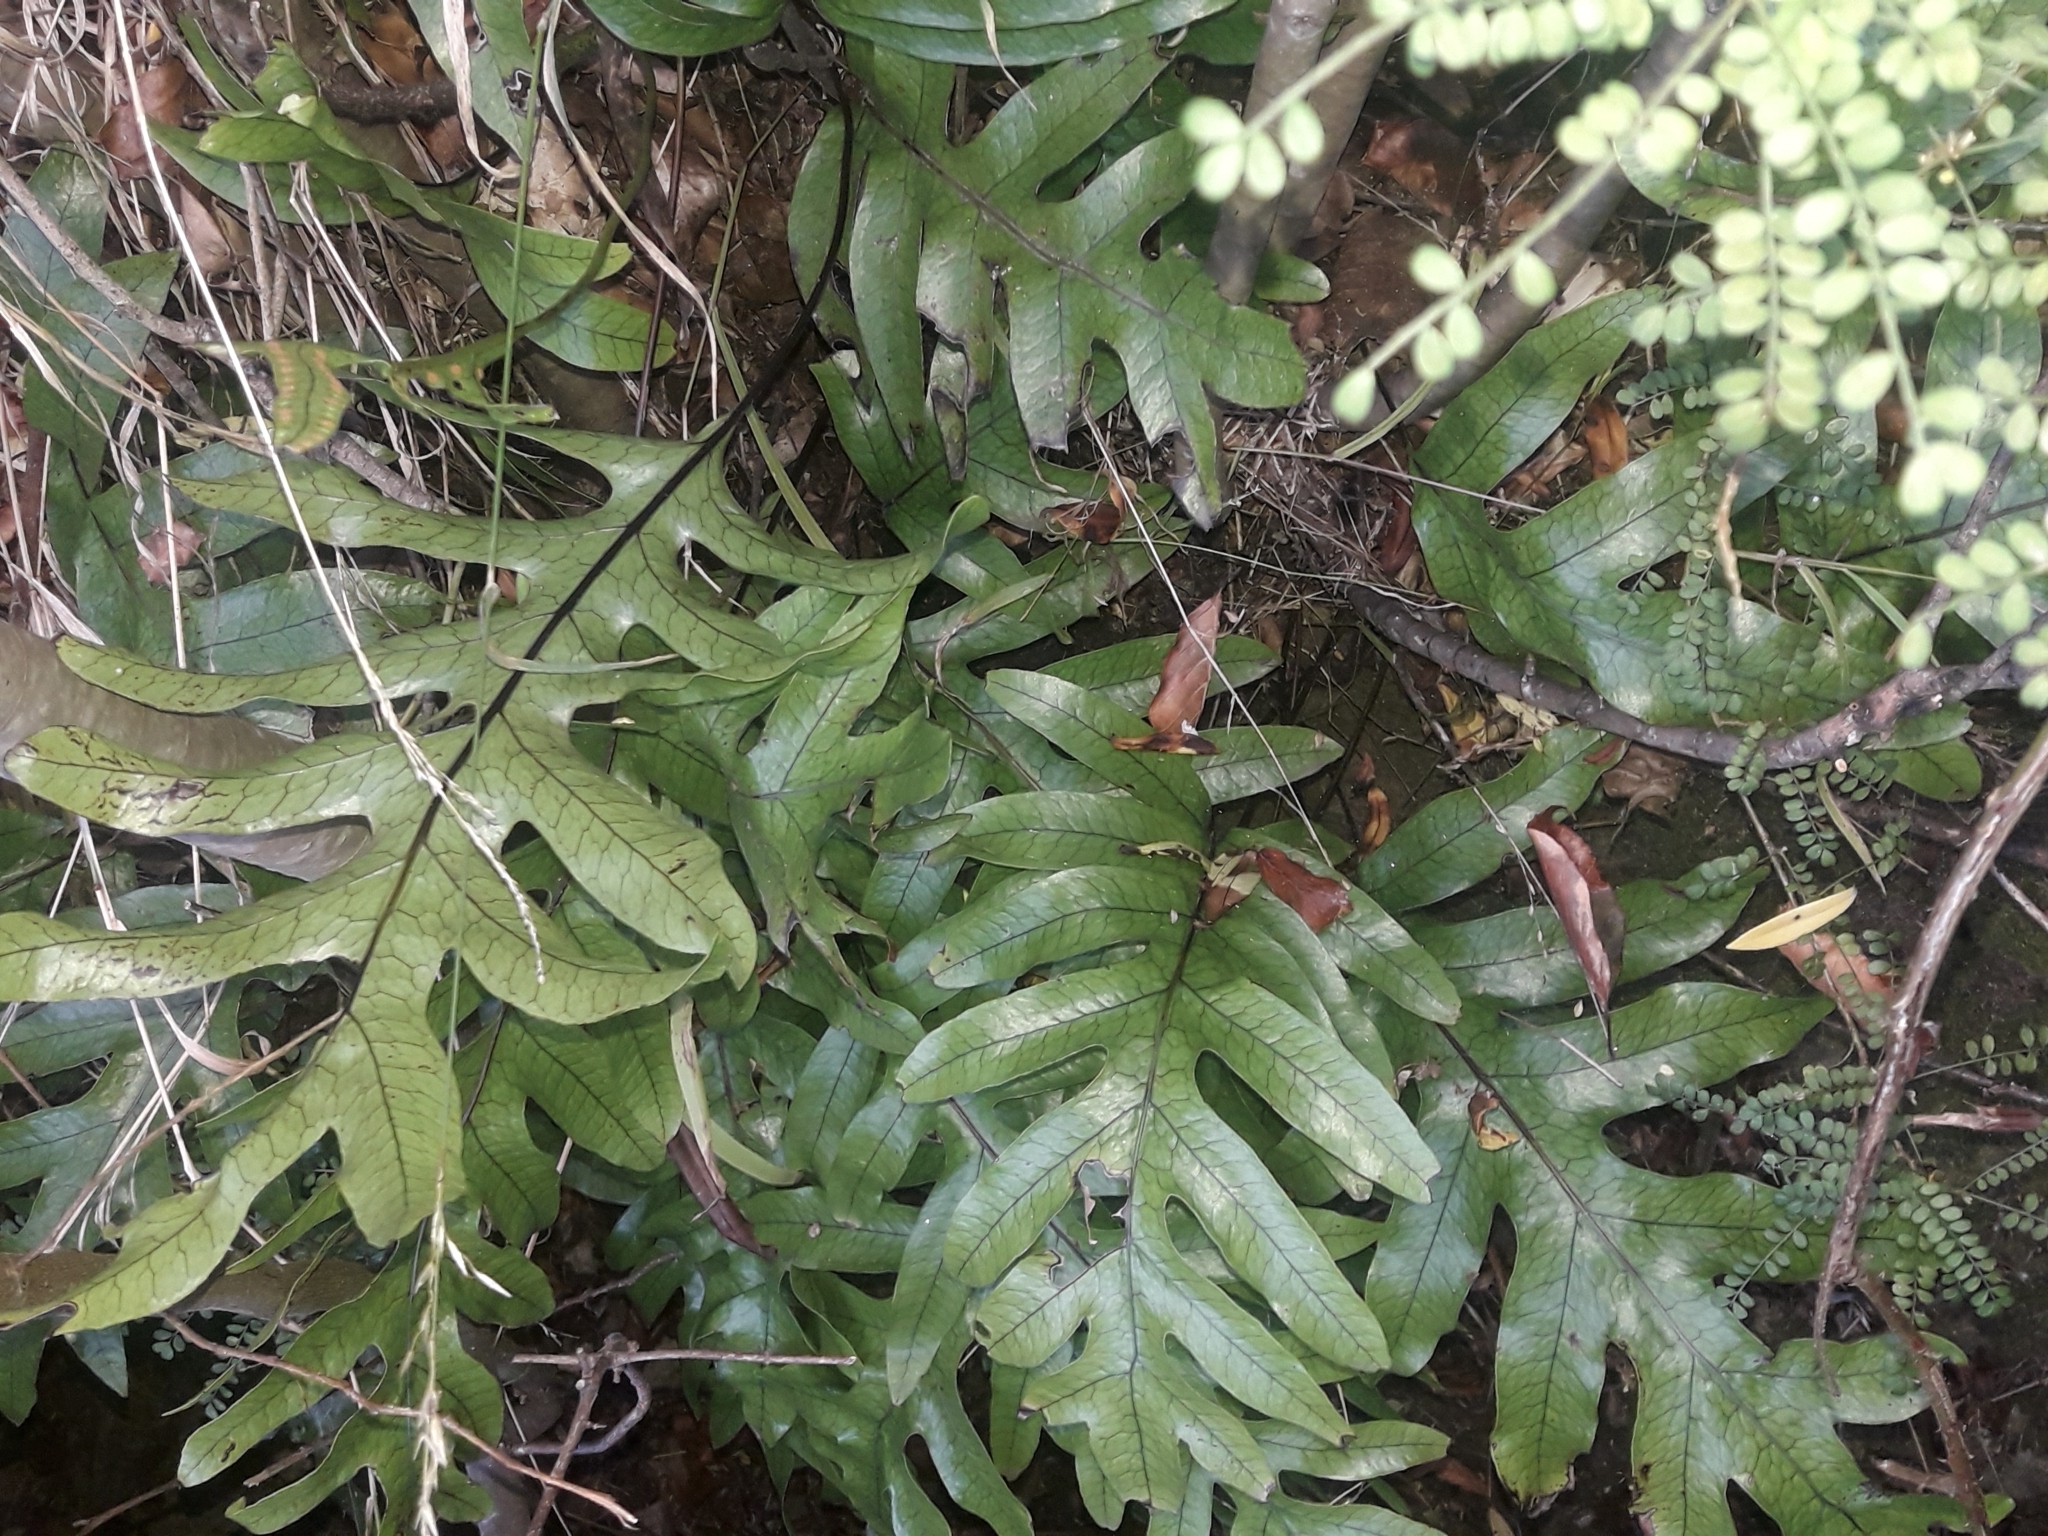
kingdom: Plantae
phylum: Tracheophyta
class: Polypodiopsida
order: Polypodiales
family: Polypodiaceae
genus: Lecanopteris
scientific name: Lecanopteris pustulata
